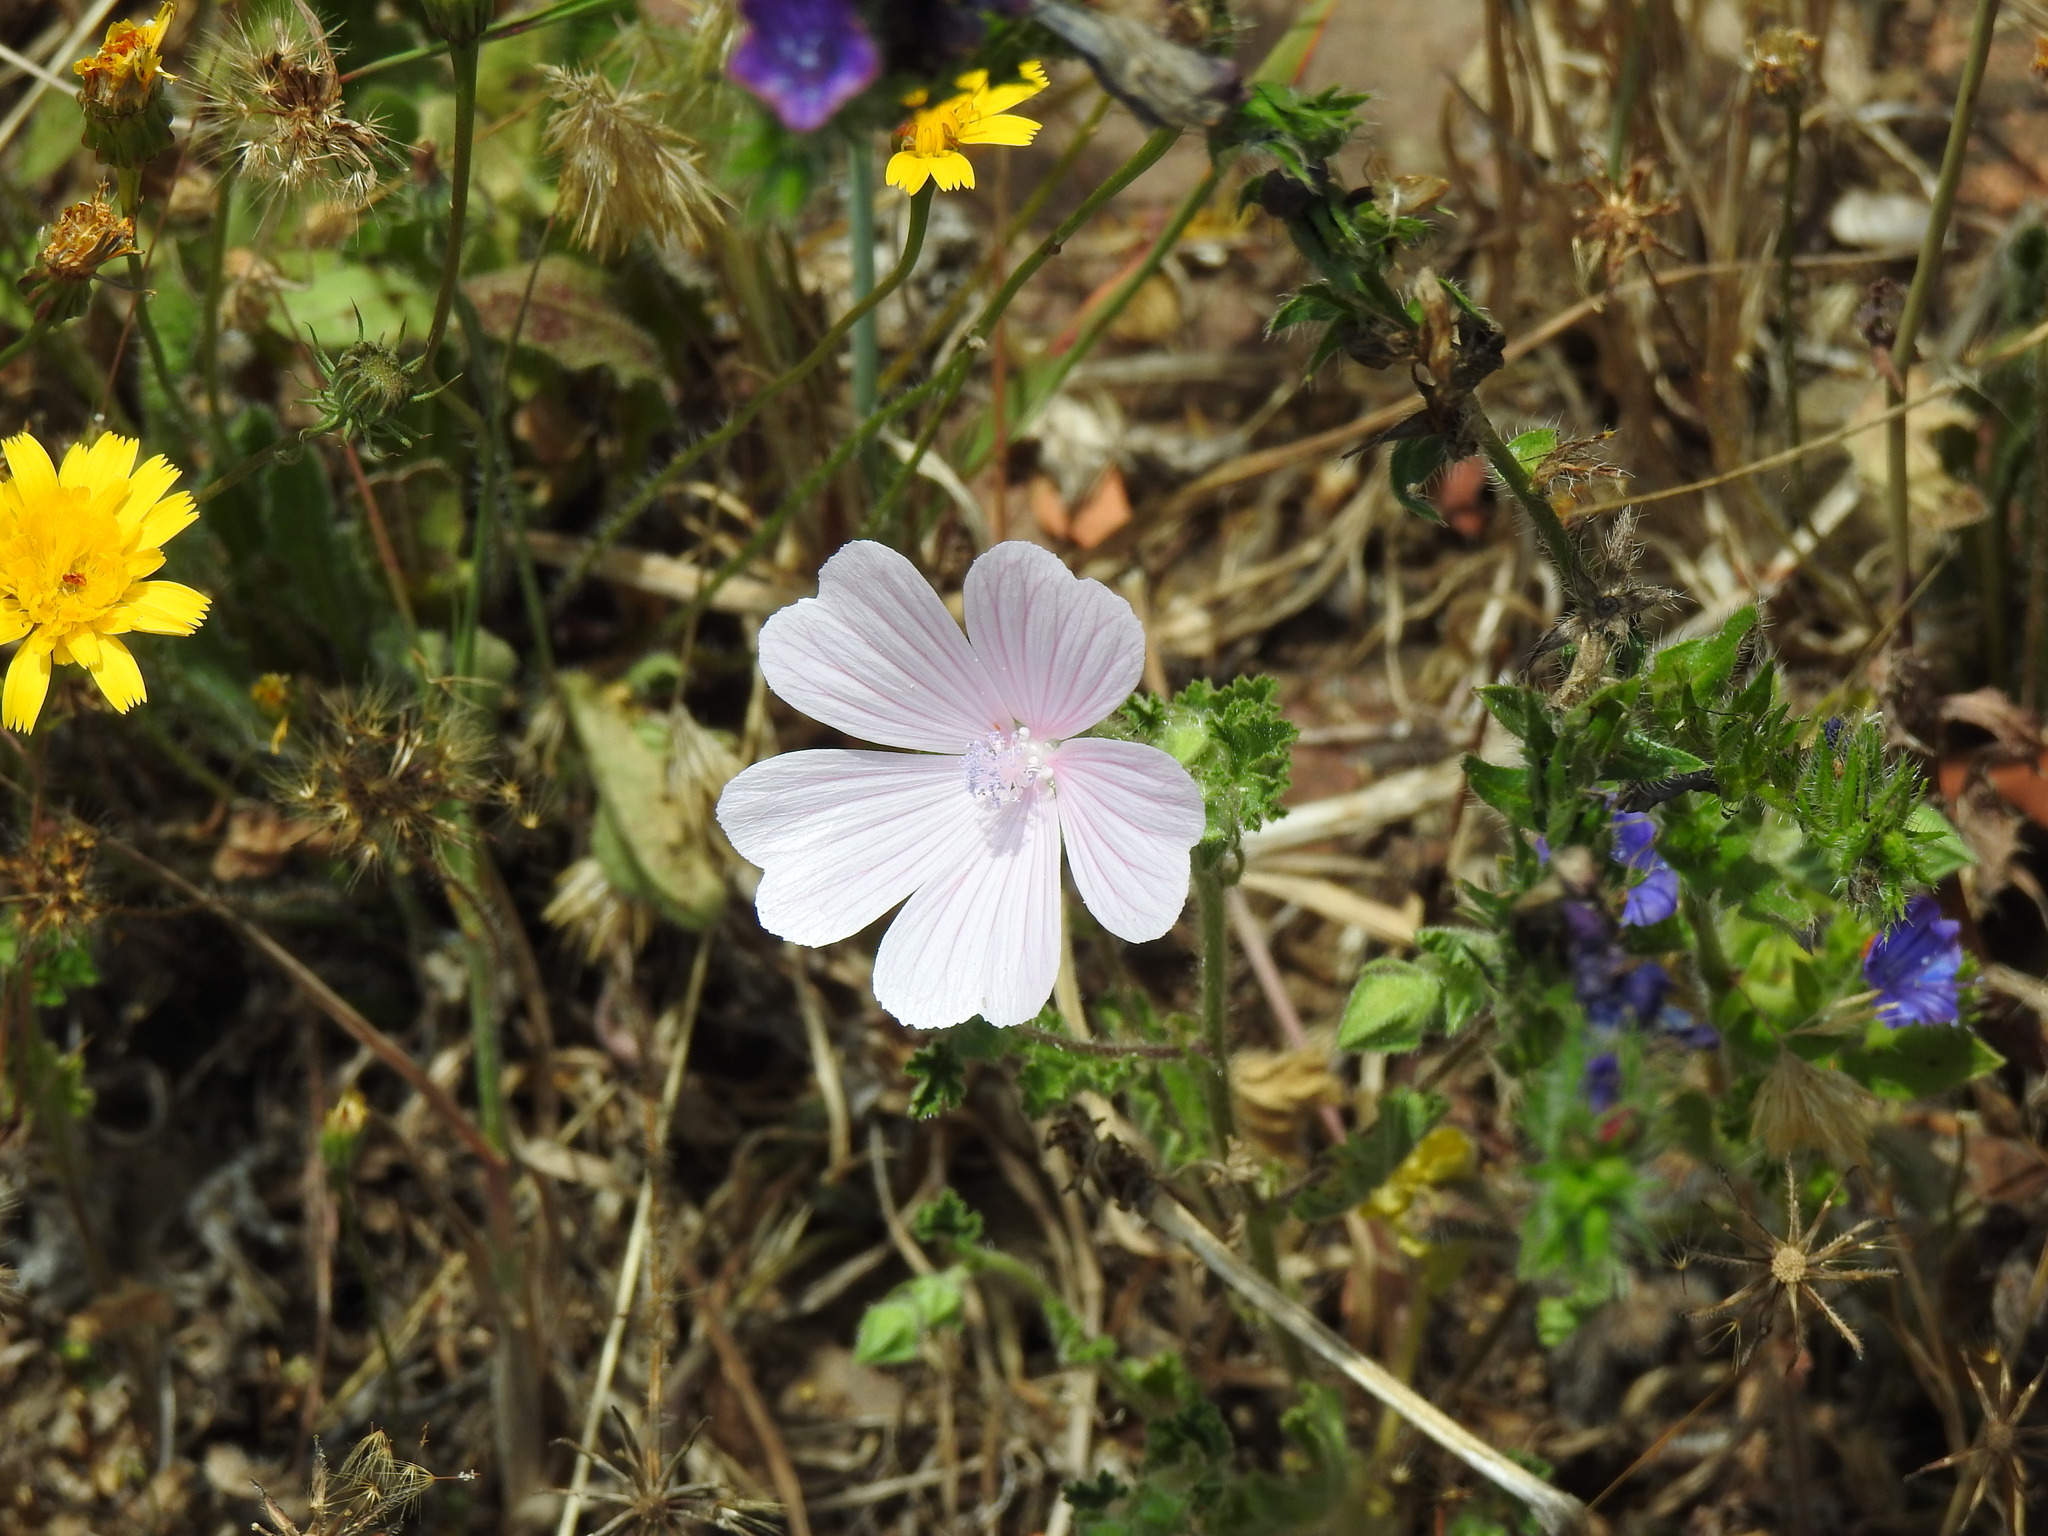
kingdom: Plantae
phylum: Tracheophyta
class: Magnoliopsida
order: Malvales
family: Malvaceae
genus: Malva
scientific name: Malva hispanica
